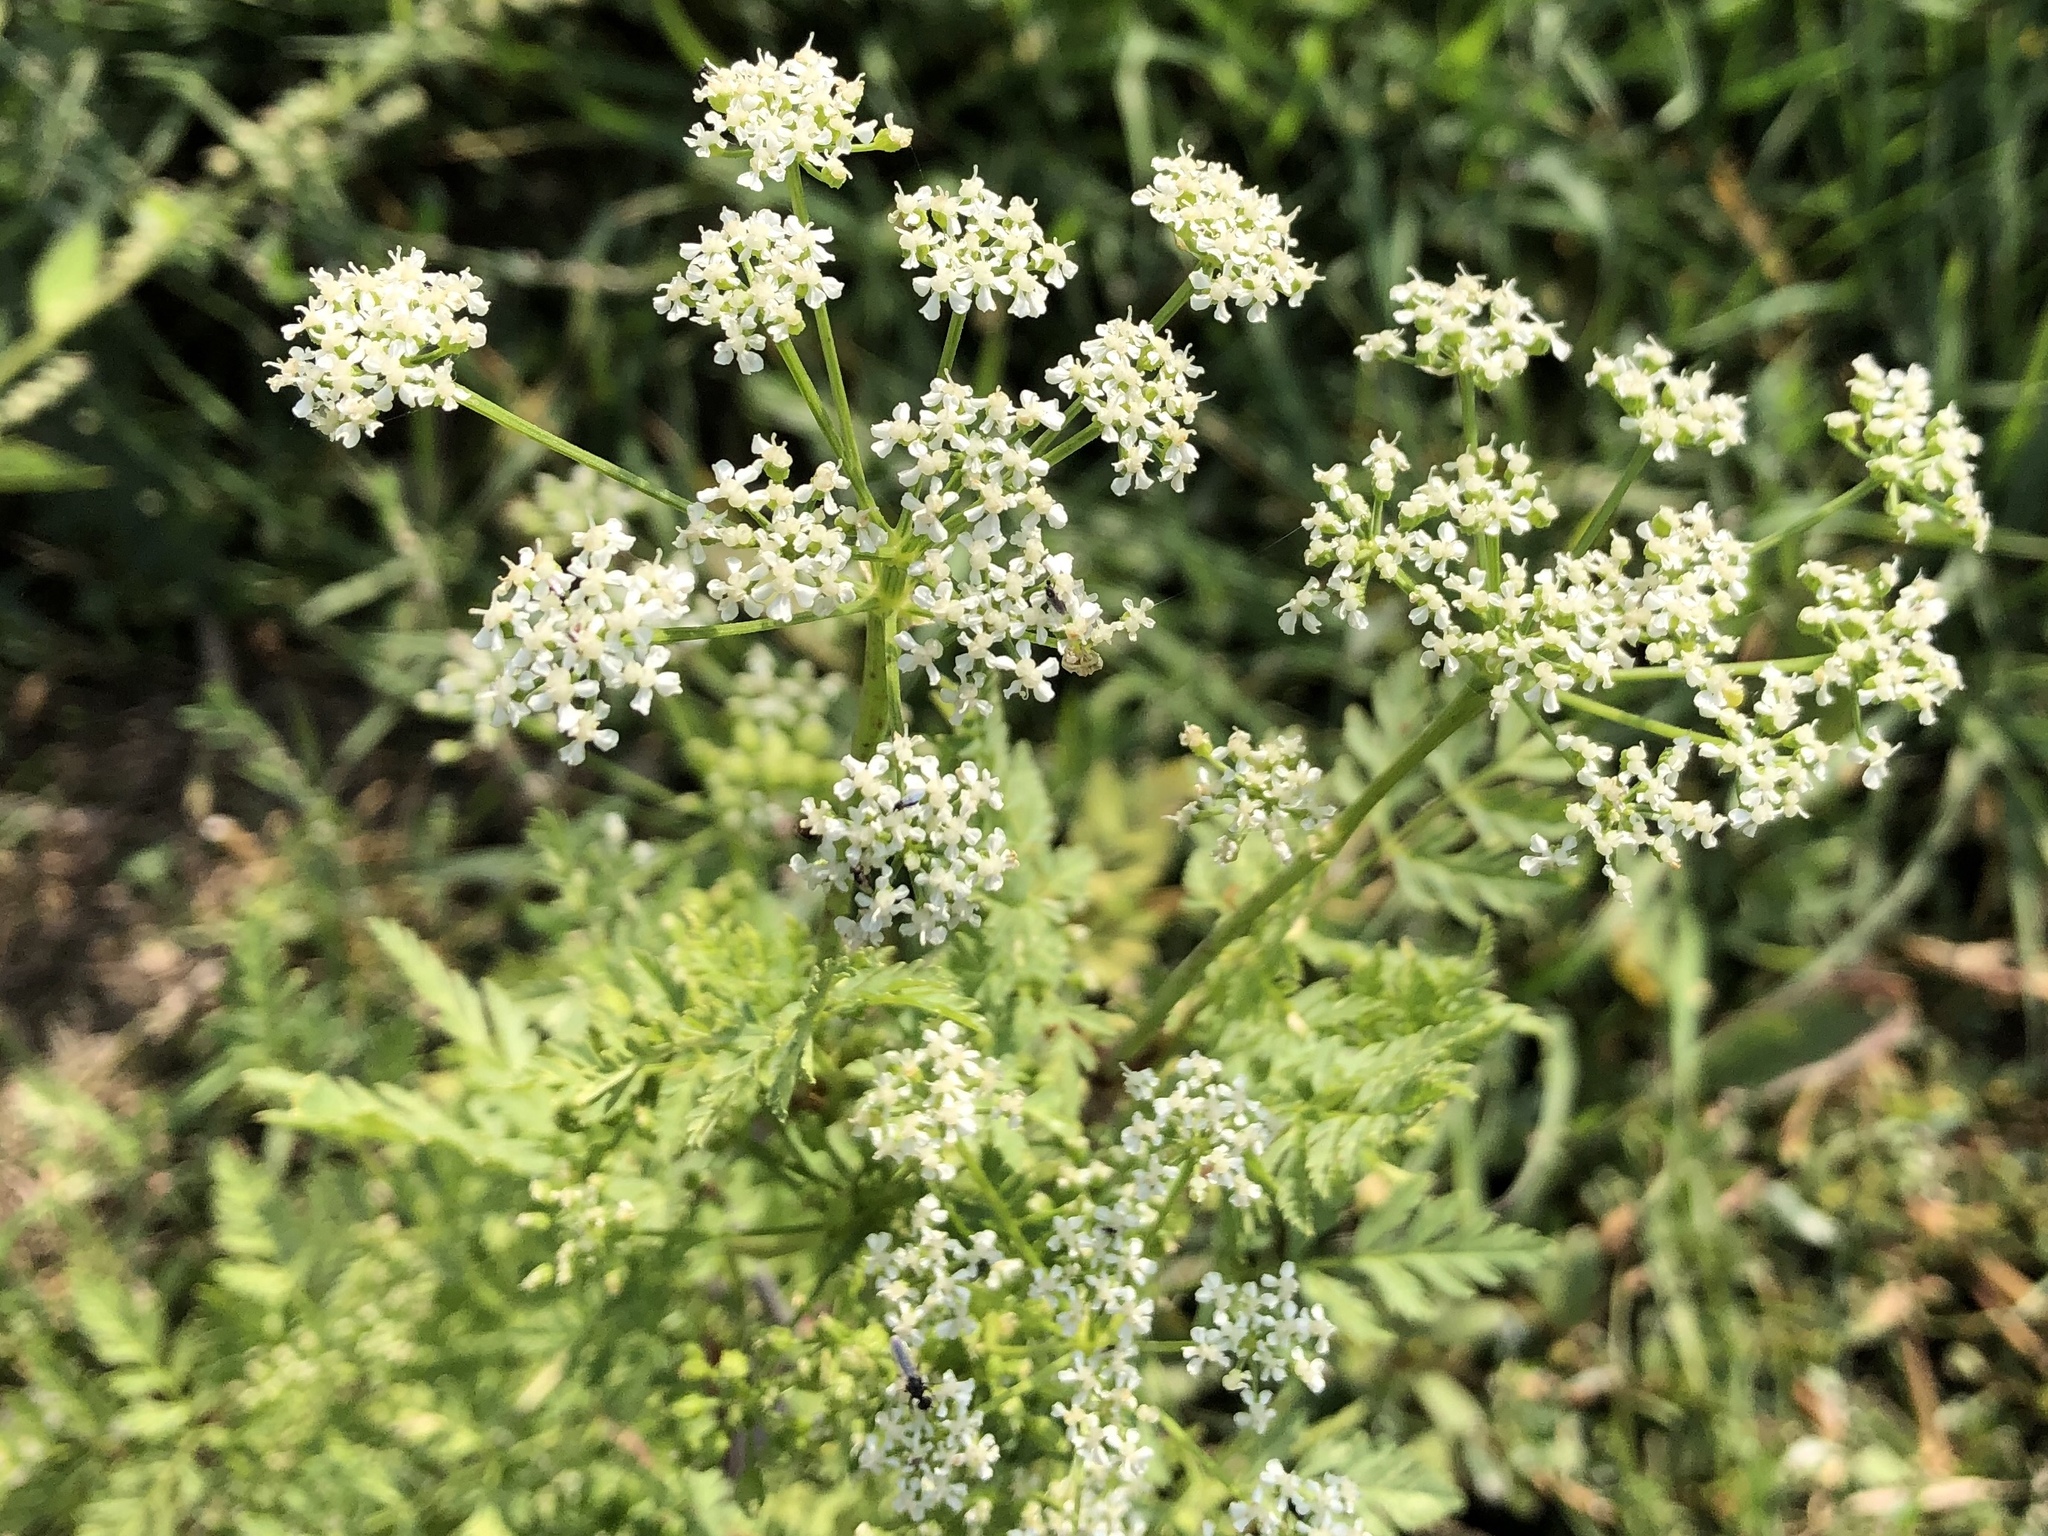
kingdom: Plantae
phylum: Tracheophyta
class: Magnoliopsida
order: Apiales
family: Apiaceae
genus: Conium
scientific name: Conium maculatum
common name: Hemlock
